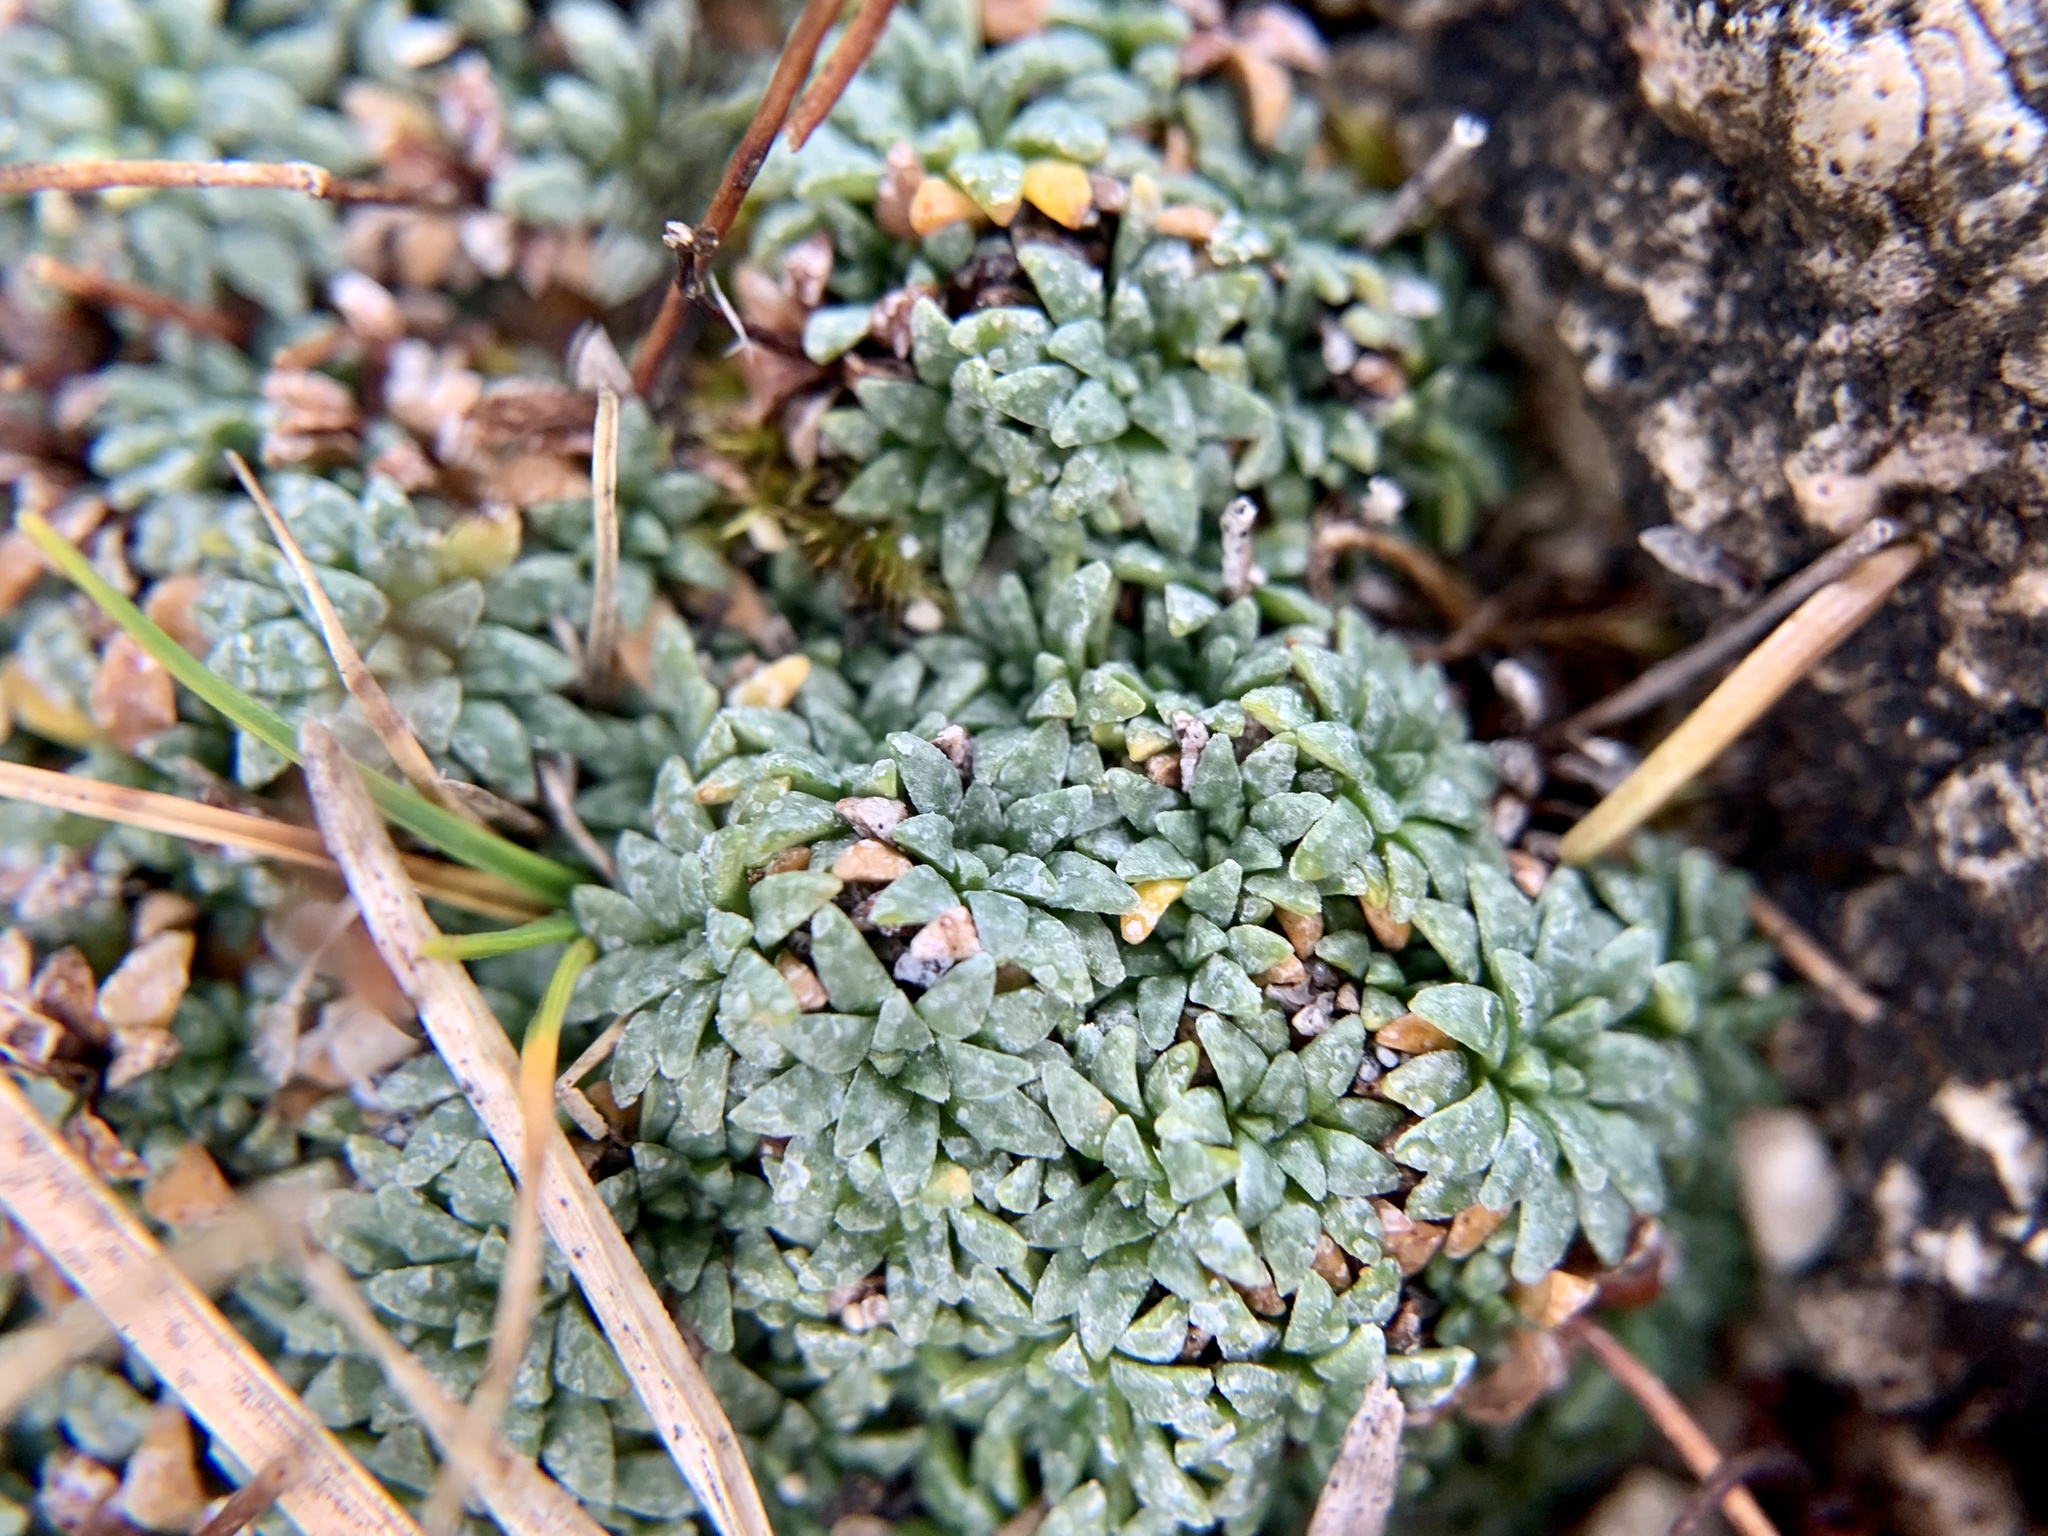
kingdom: Plantae
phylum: Tracheophyta
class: Magnoliopsida
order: Saxifragales
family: Saxifragaceae
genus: Saxifraga
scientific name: Saxifraga caesia
